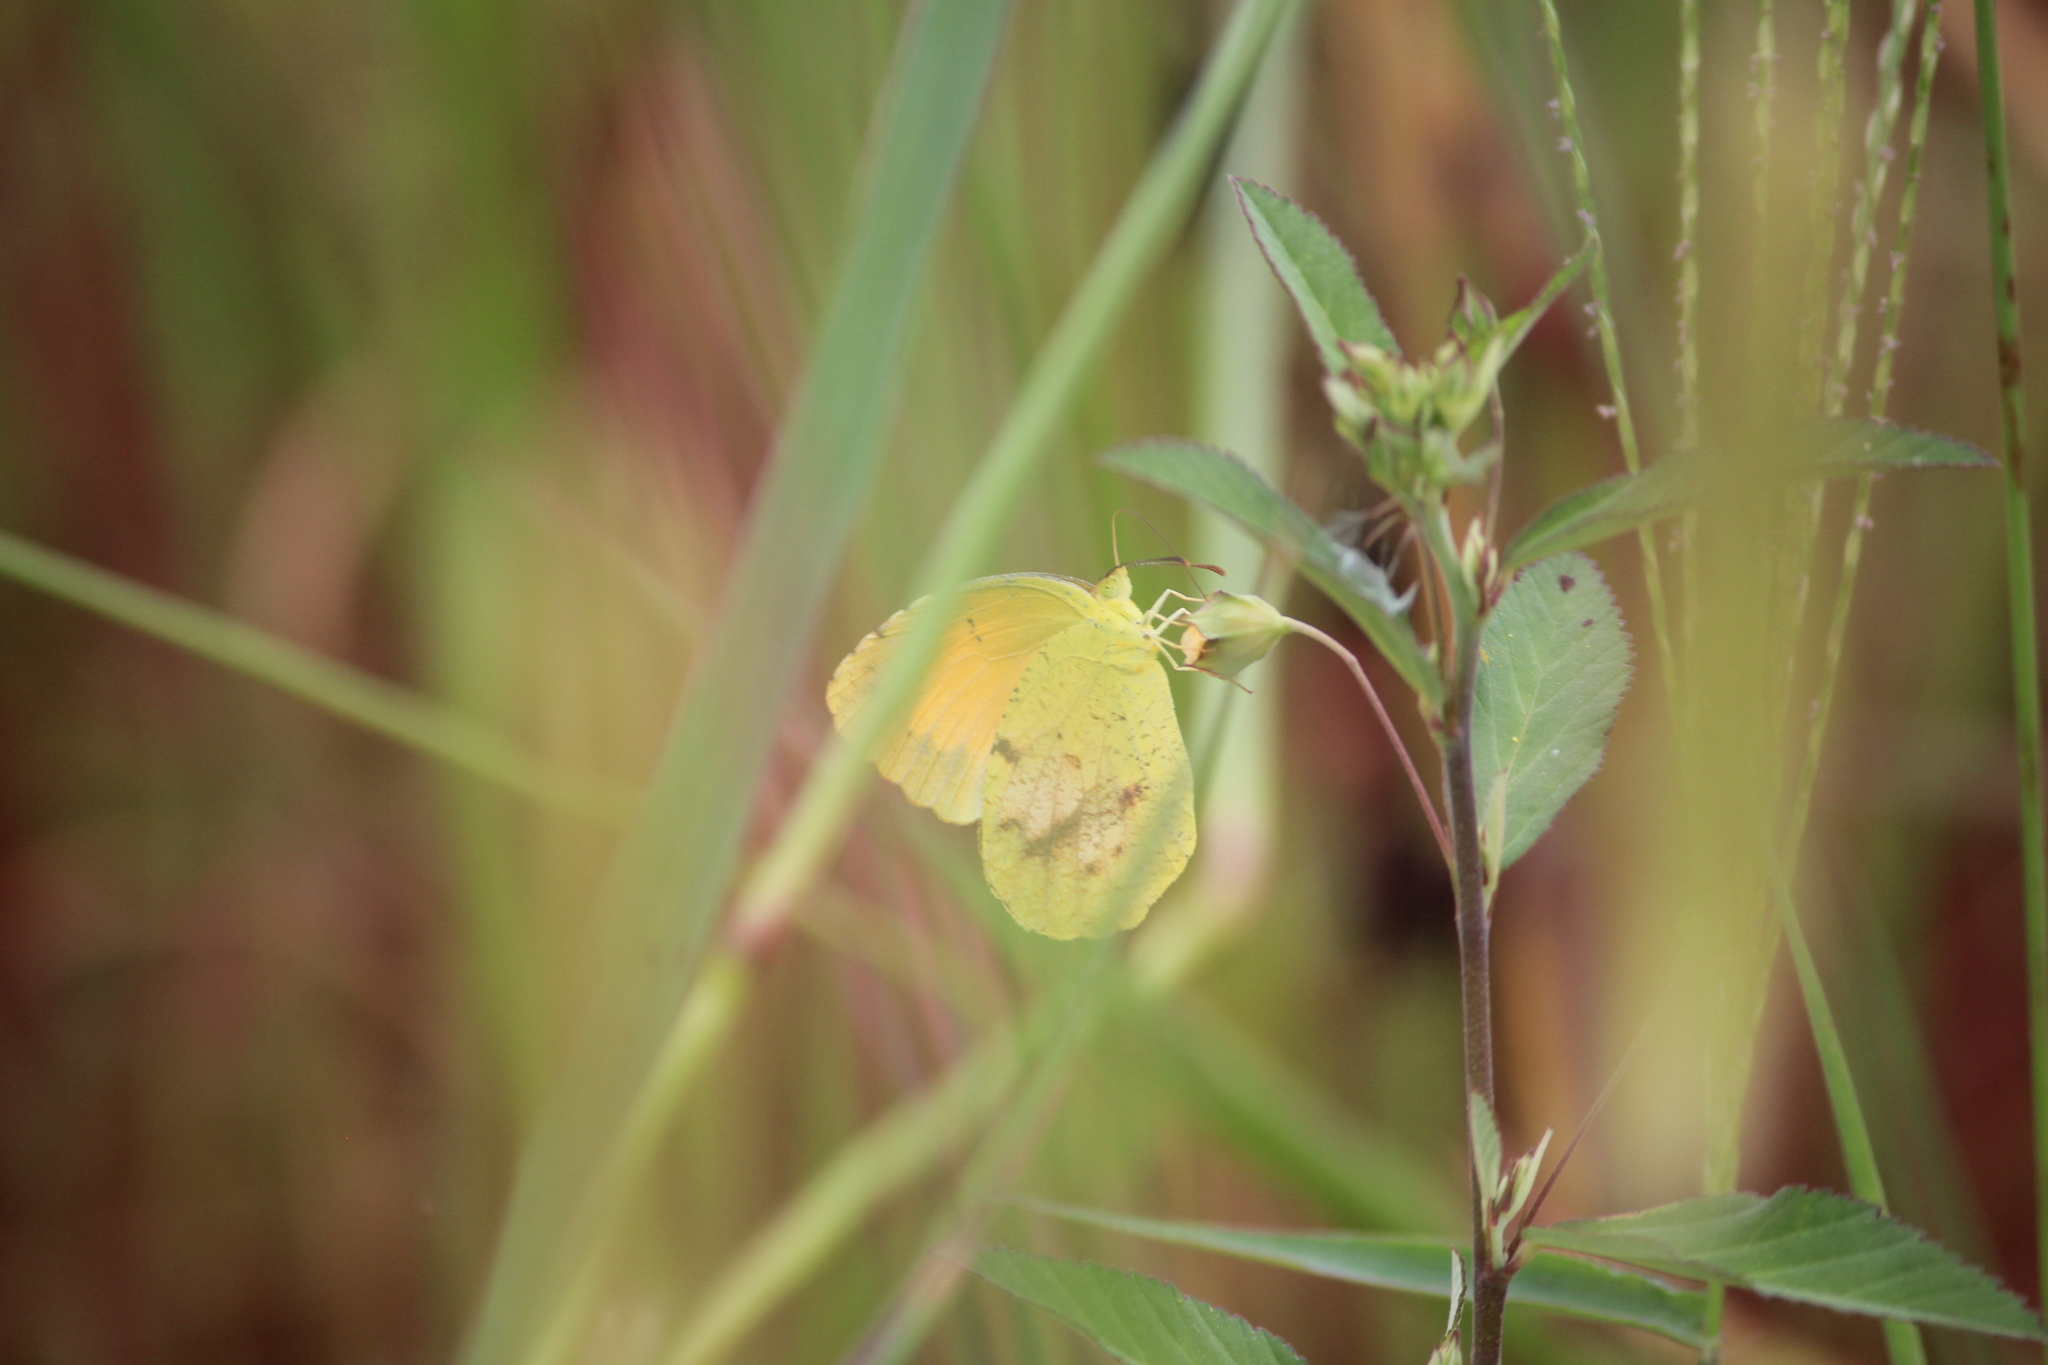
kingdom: Animalia
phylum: Arthropoda
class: Insecta
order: Lepidoptera
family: Pieridae
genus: Abaeis
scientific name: Abaeis nicippe
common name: Sleepy orange
